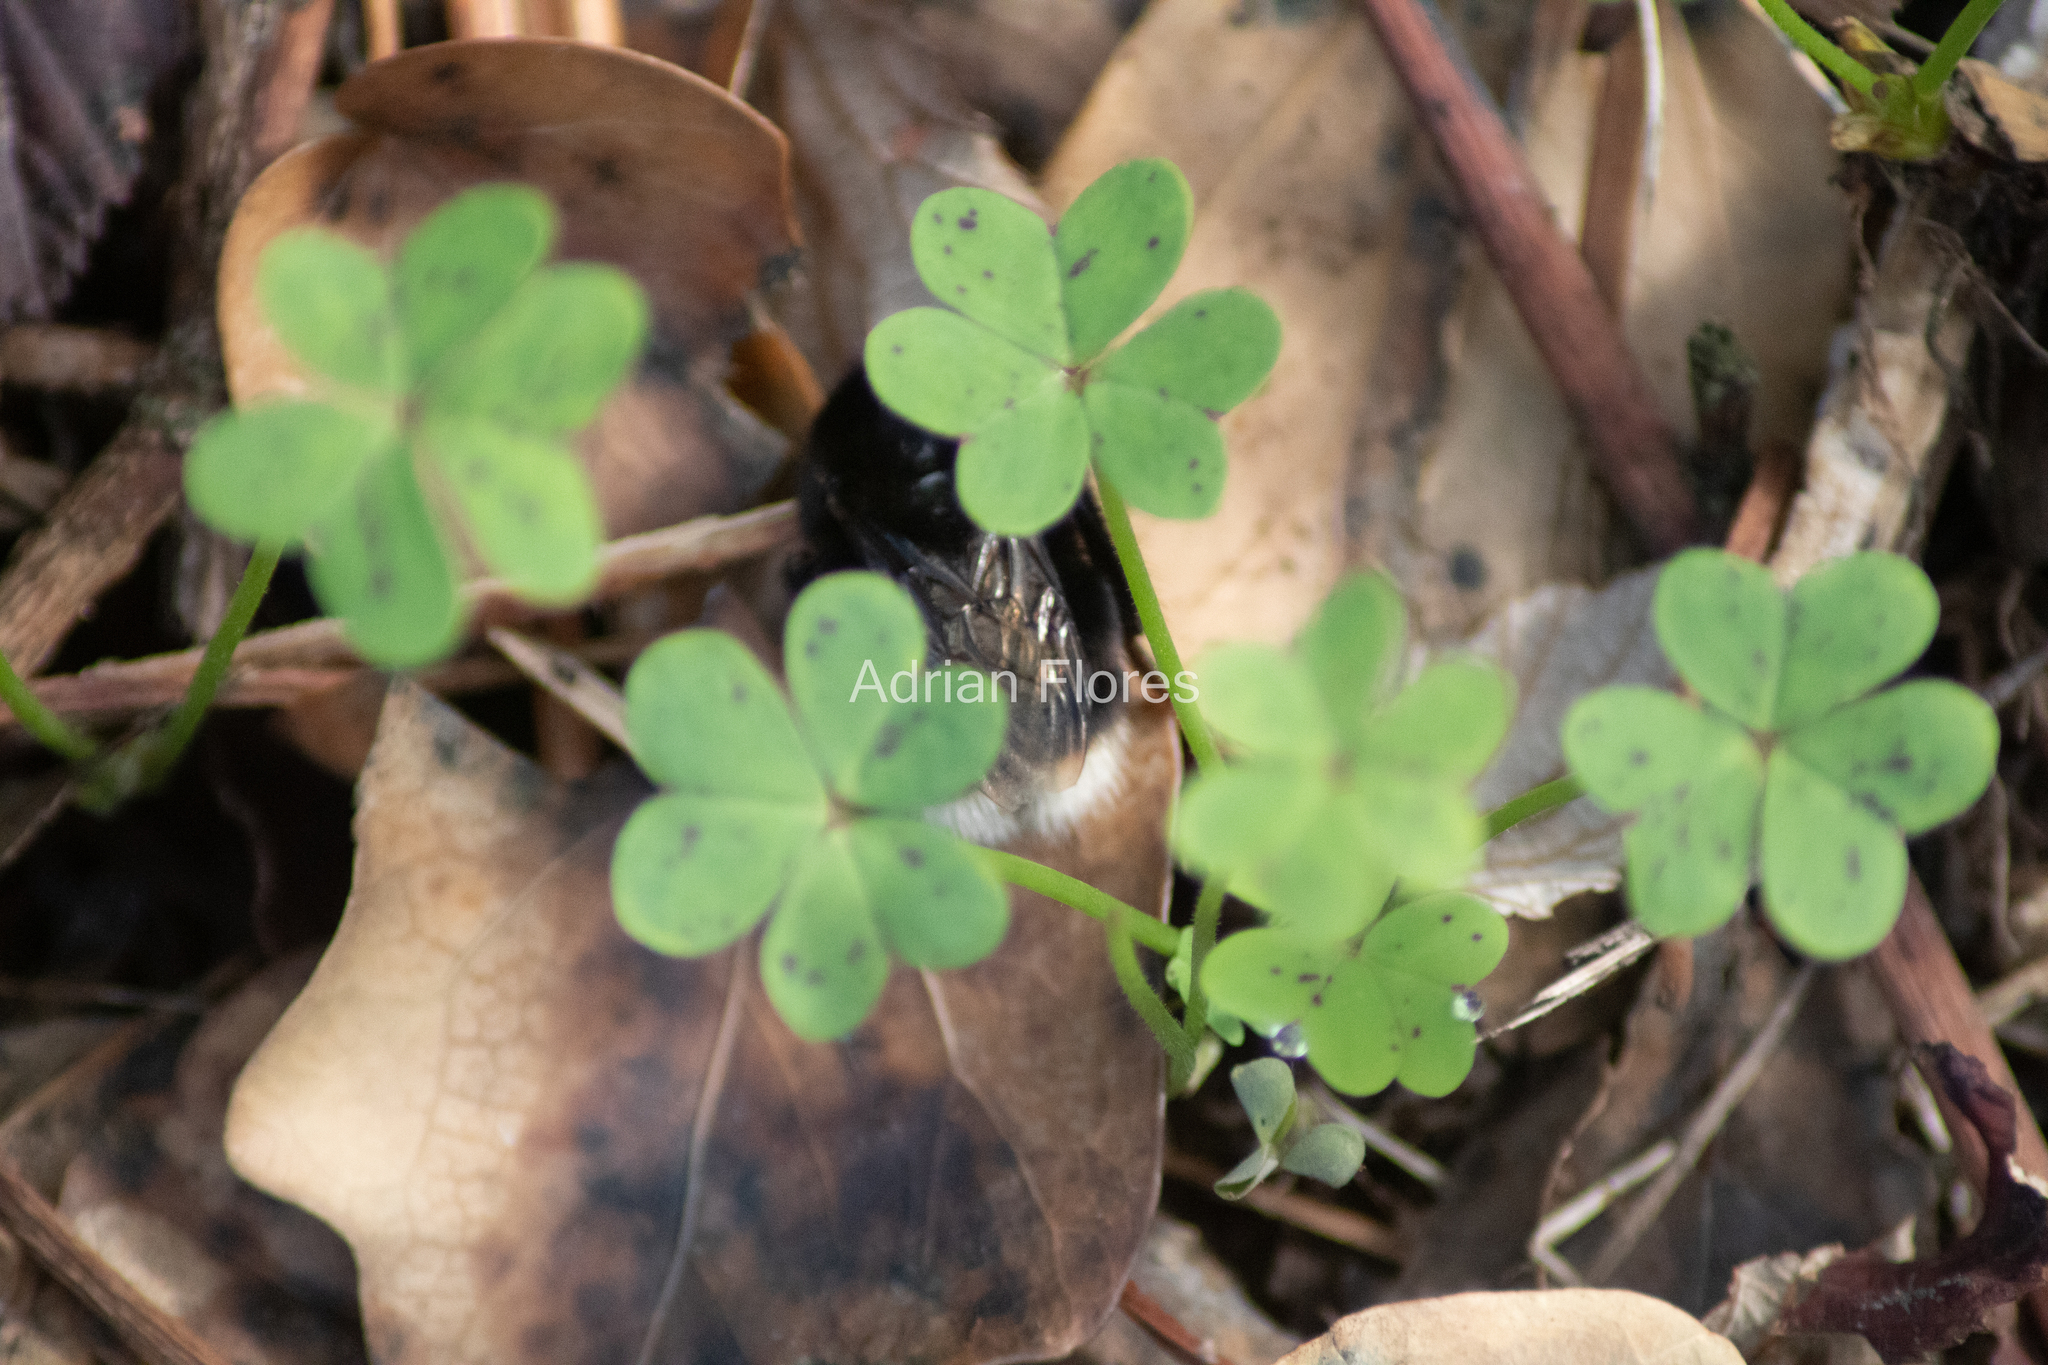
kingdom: Animalia
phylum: Arthropoda
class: Insecta
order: Hymenoptera
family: Apidae
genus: Bombus
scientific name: Bombus terrestris
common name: Buff-tailed bumblebee
